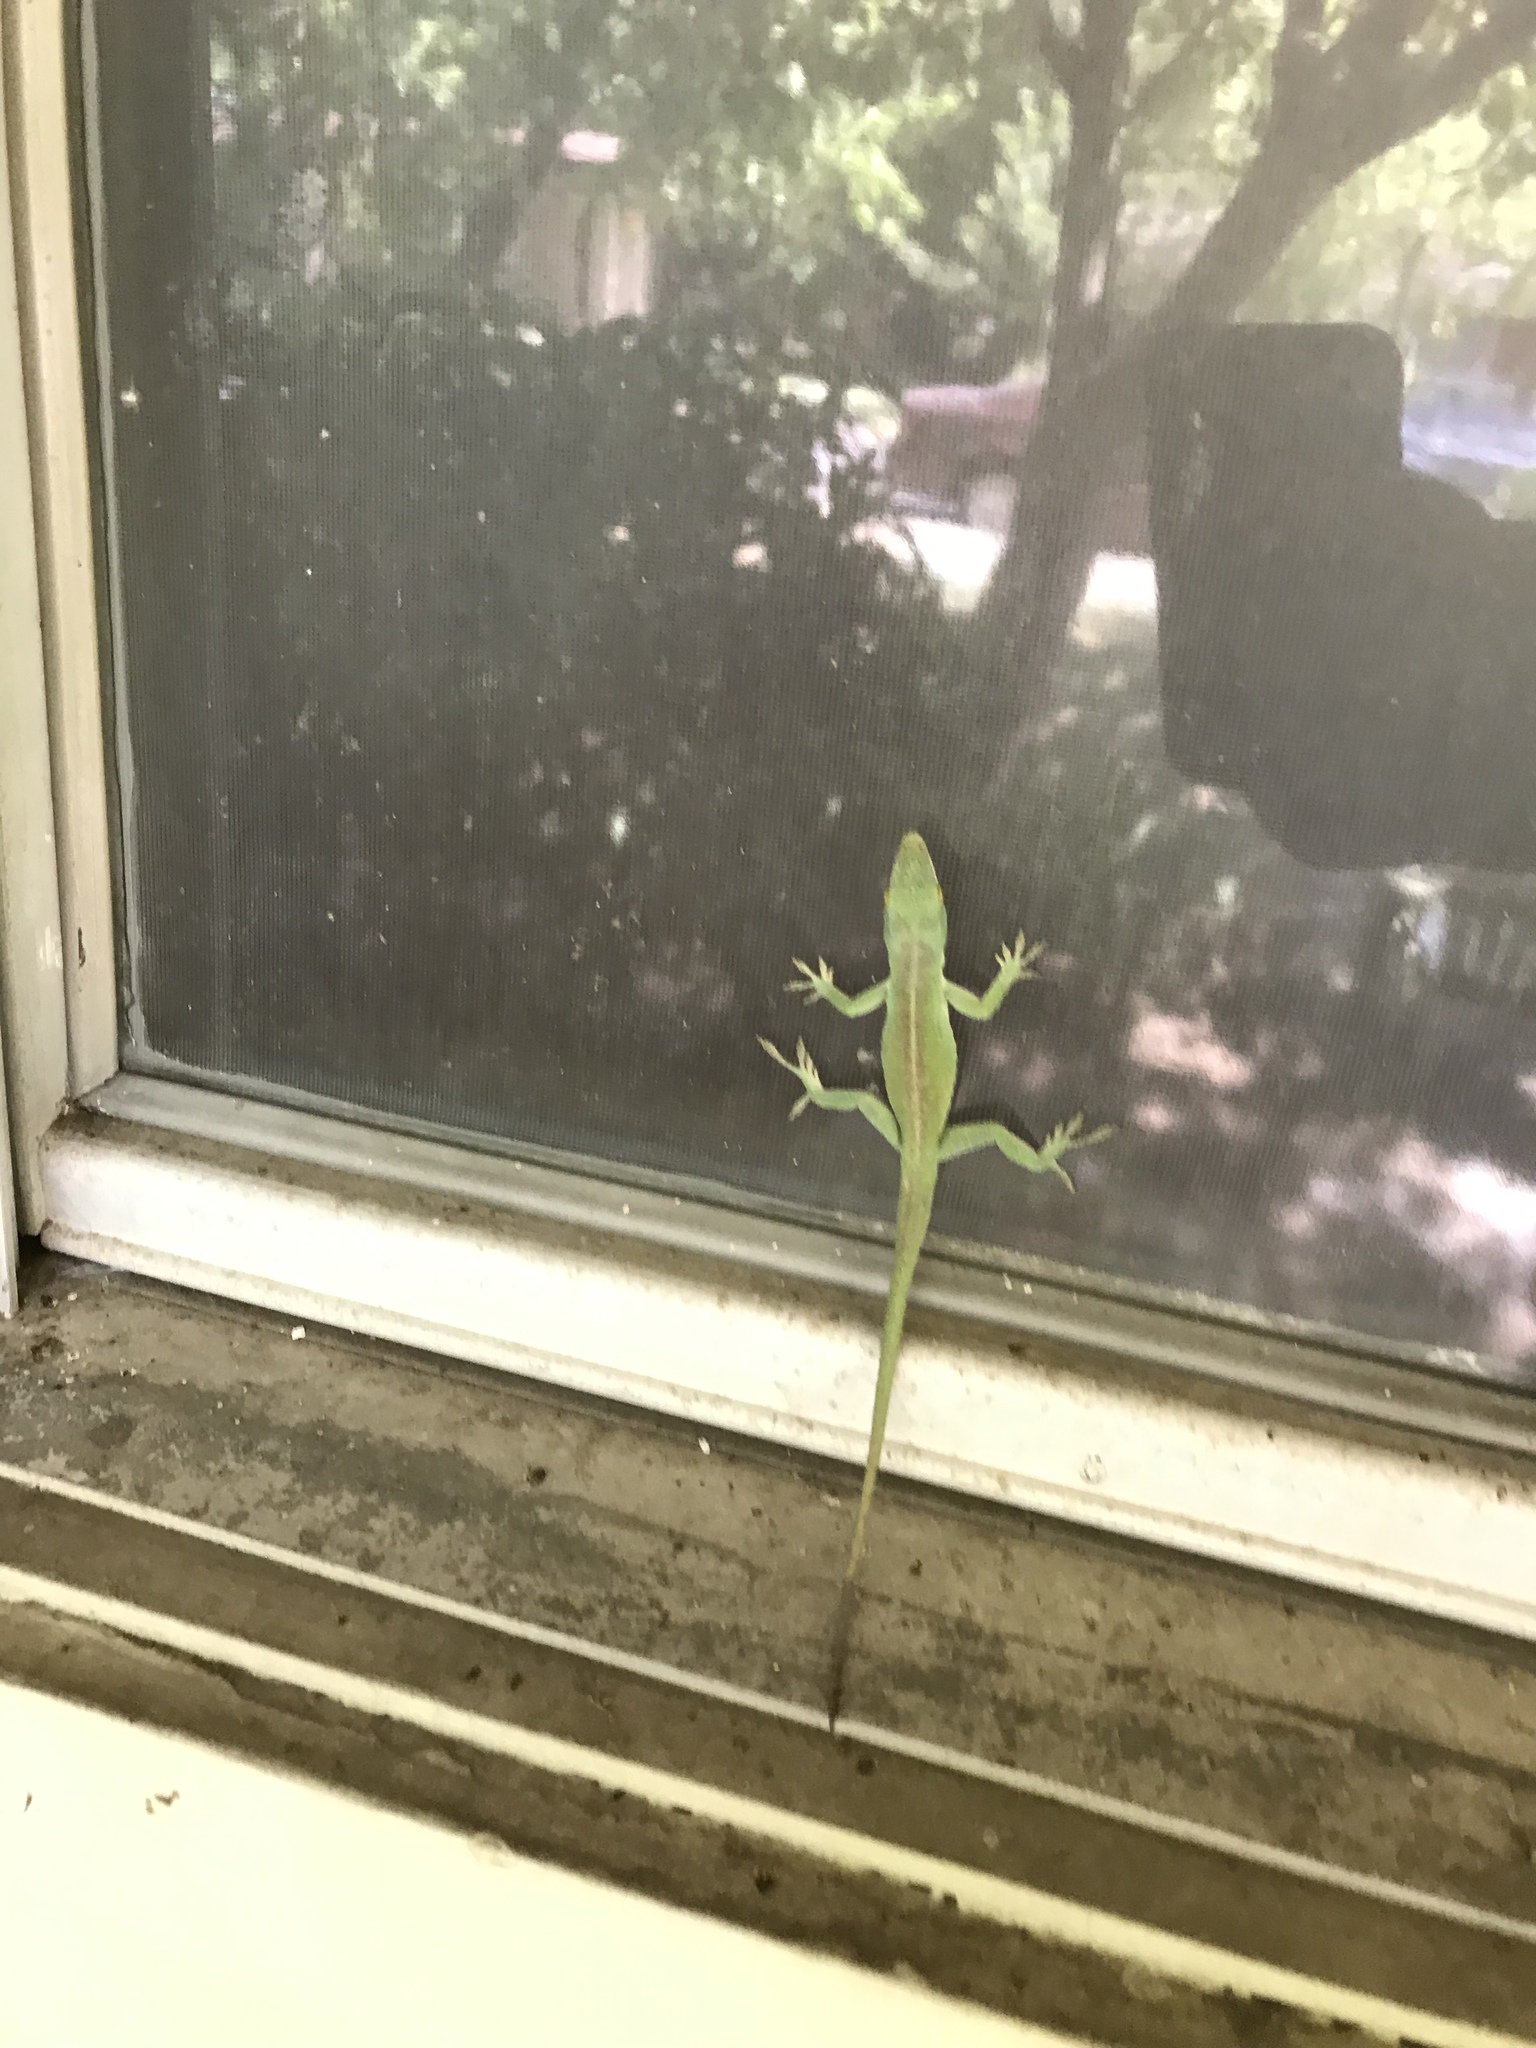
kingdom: Animalia
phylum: Chordata
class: Squamata
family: Dactyloidae
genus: Anolis
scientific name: Anolis carolinensis
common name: Green anole
